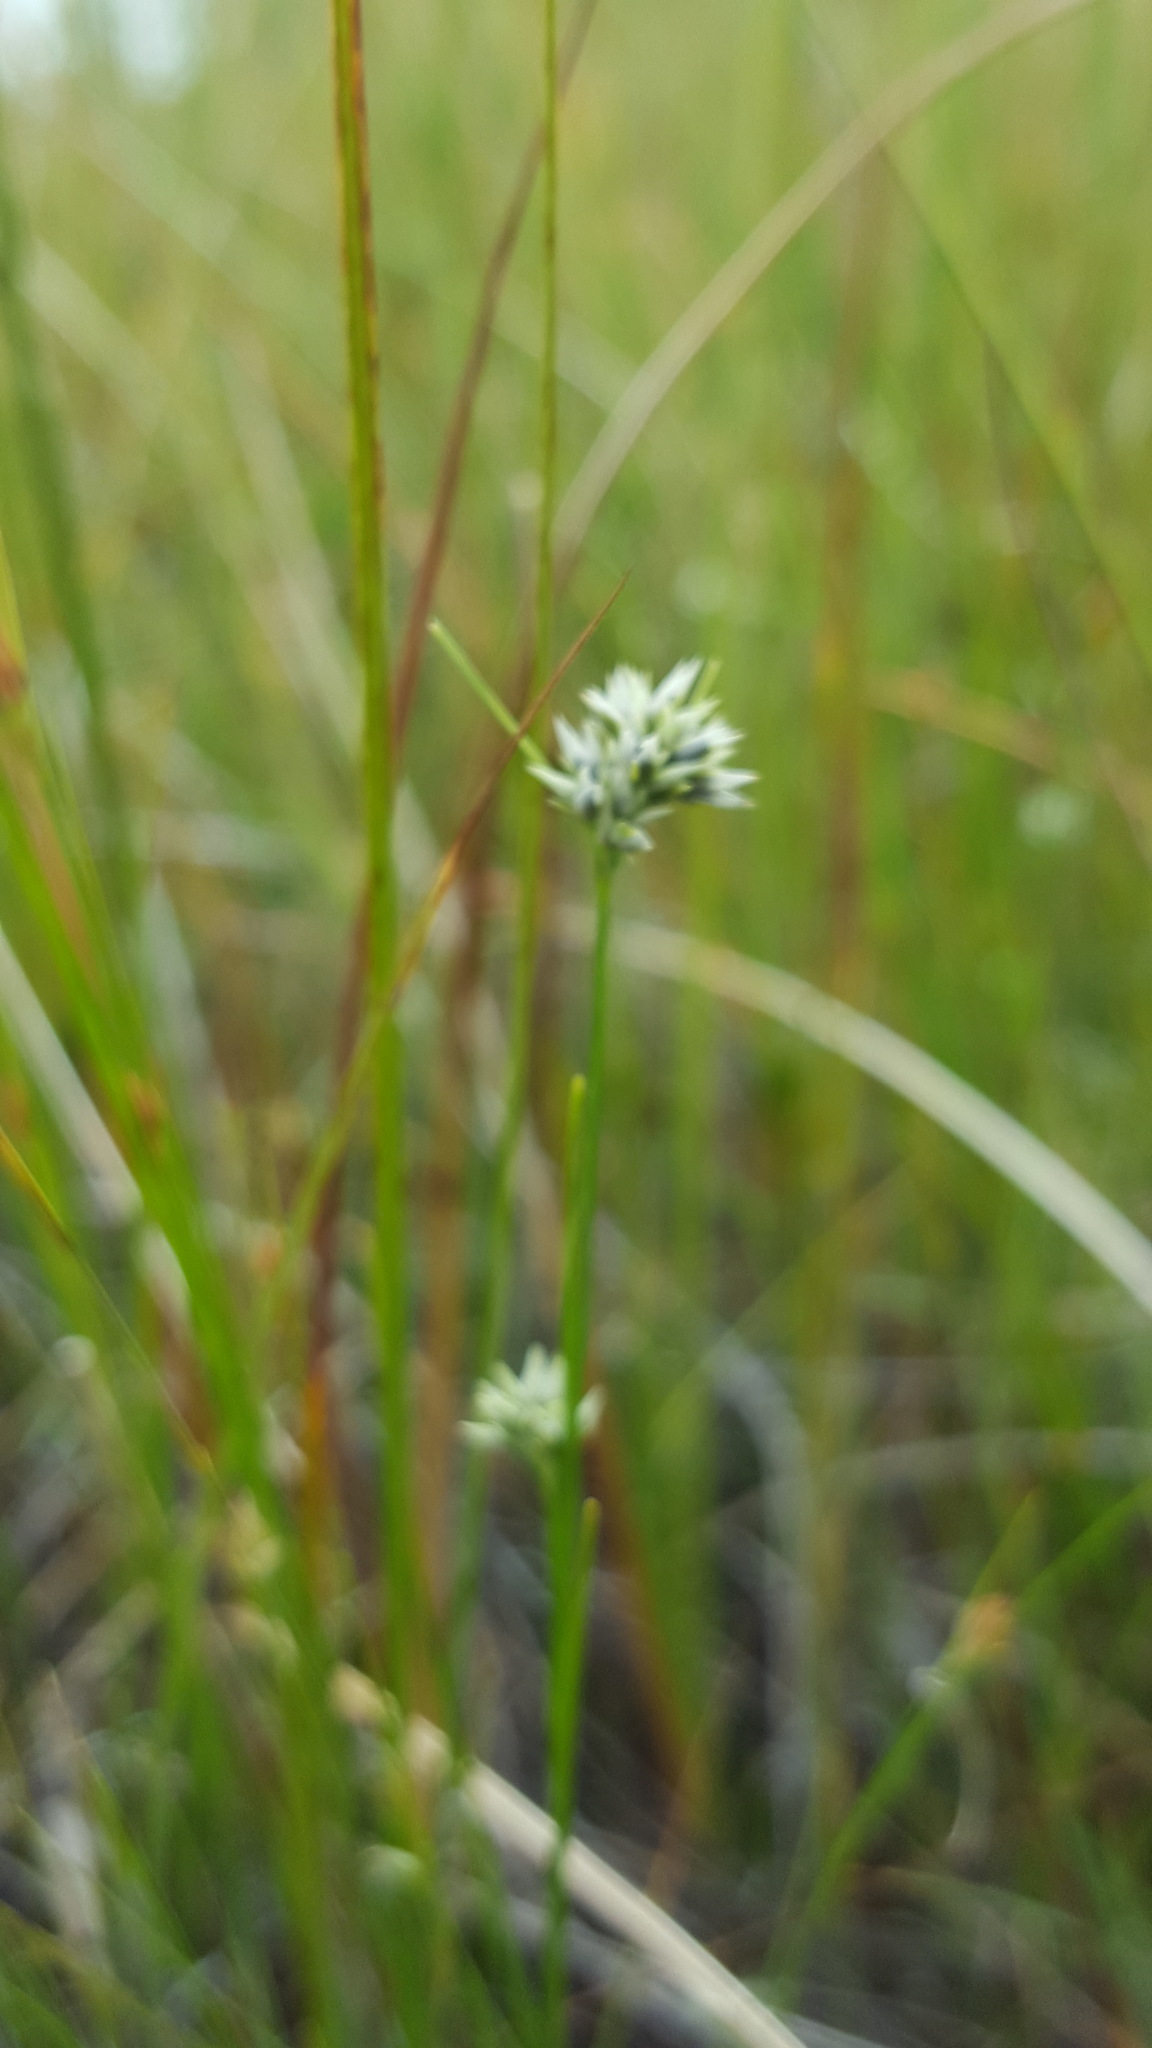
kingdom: Plantae
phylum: Tracheophyta
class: Liliopsida
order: Poales
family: Cyperaceae
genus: Rhynchospora
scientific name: Rhynchospora alba
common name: White beak-sedge
